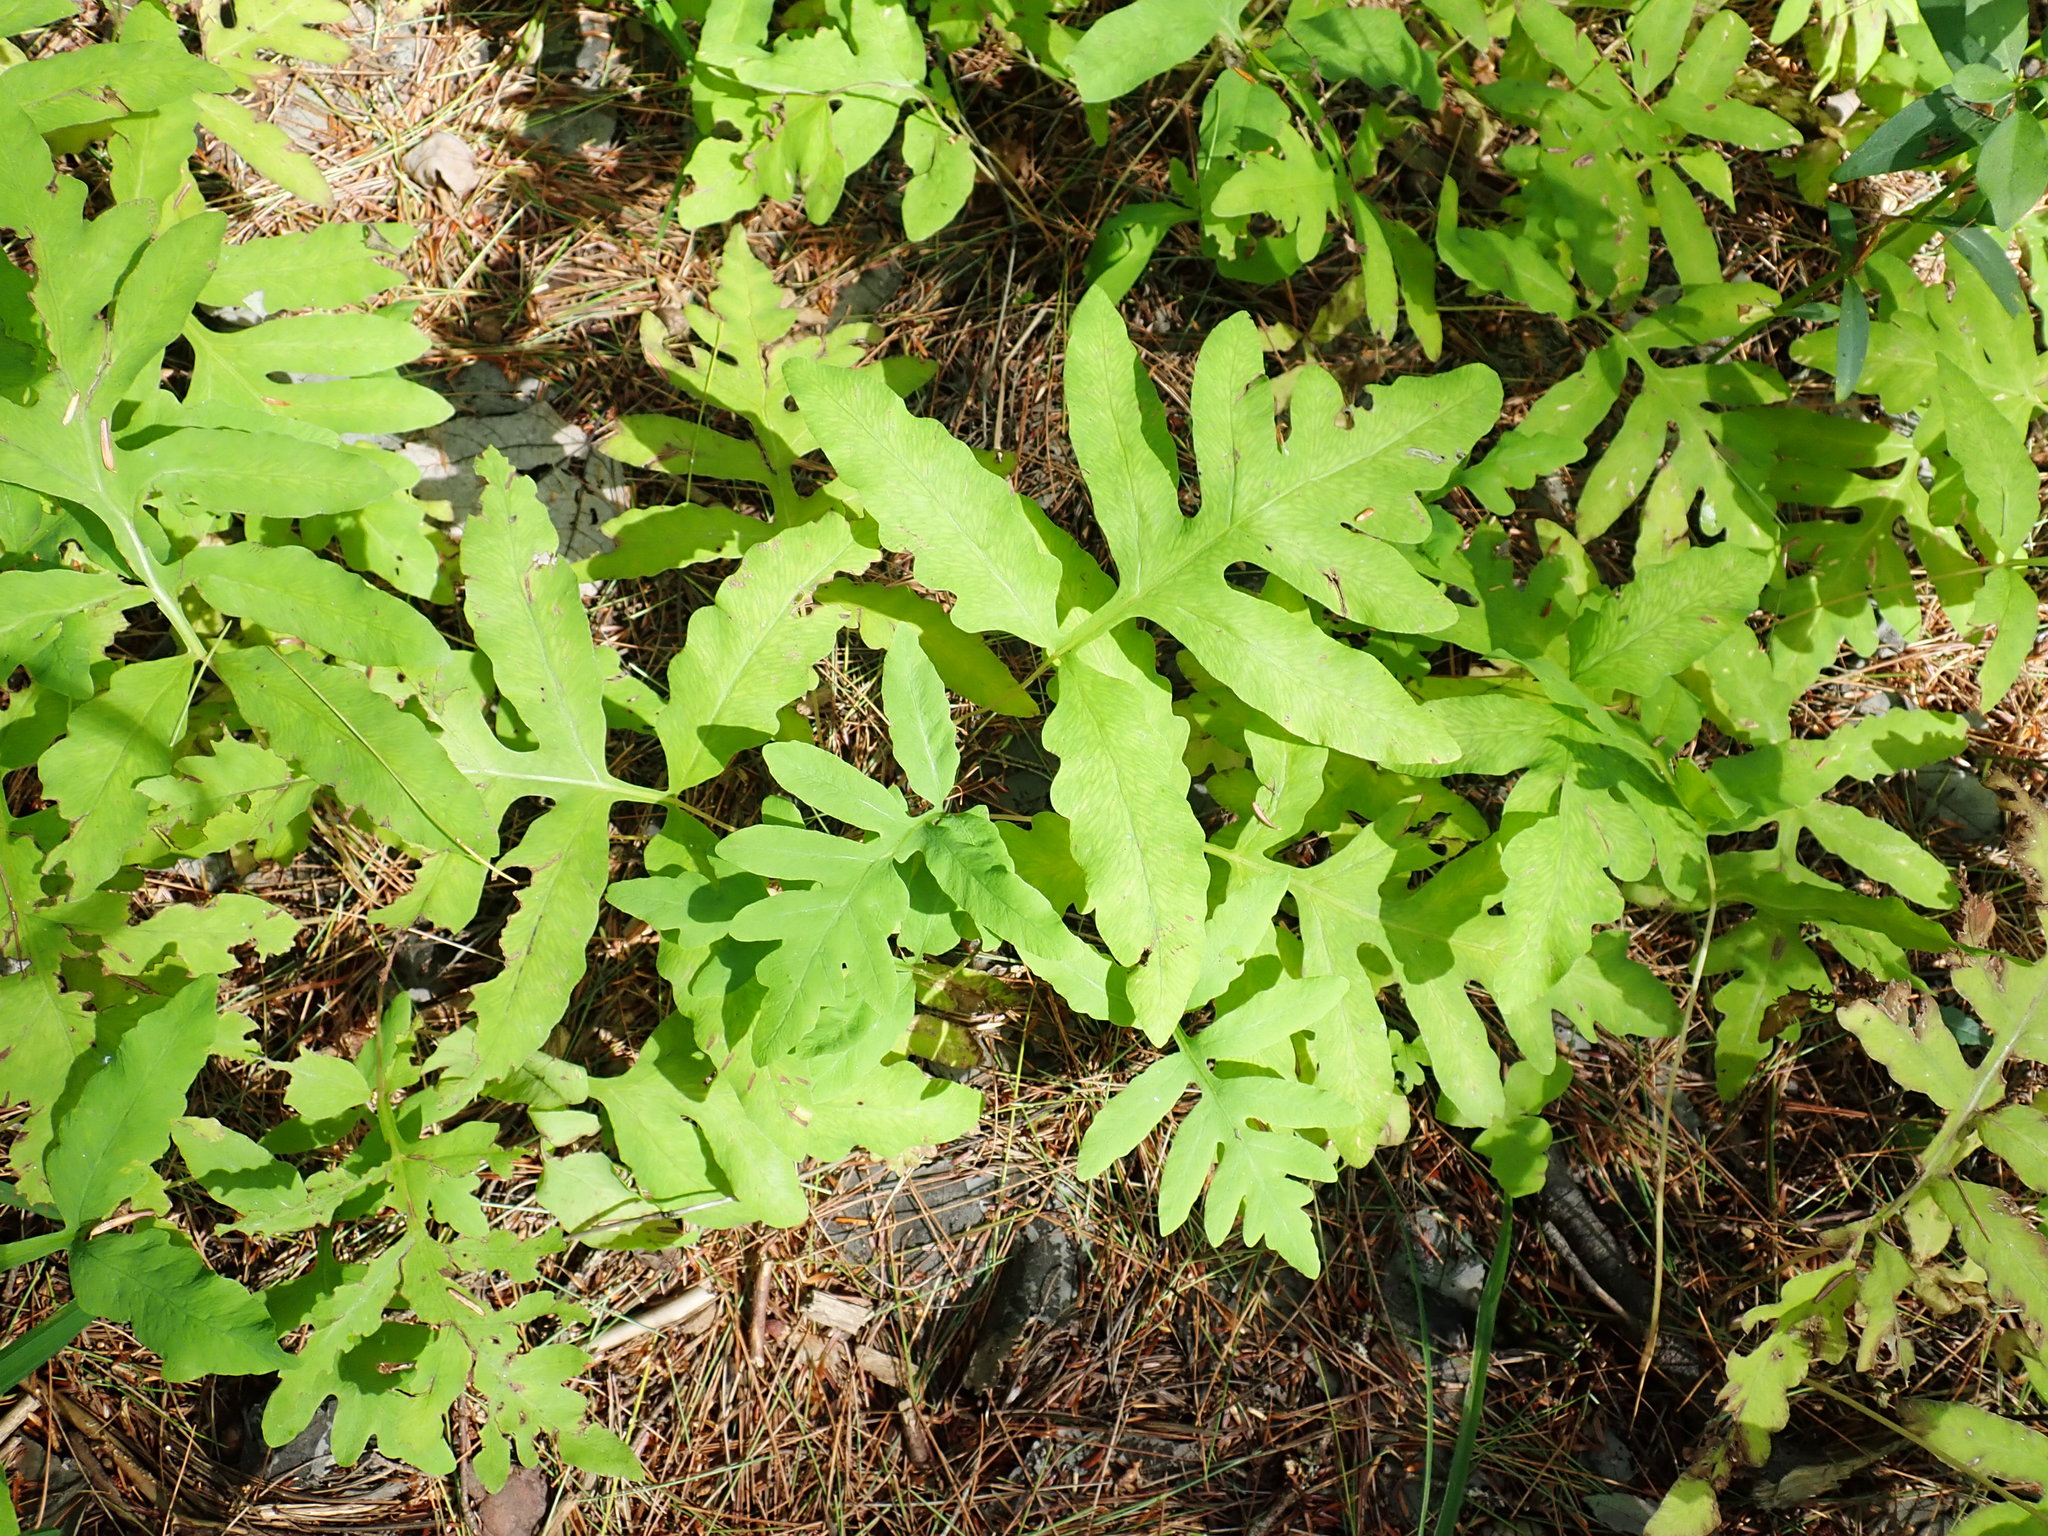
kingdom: Plantae
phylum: Tracheophyta
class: Polypodiopsida
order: Polypodiales
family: Onocleaceae
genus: Onoclea
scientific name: Onoclea sensibilis
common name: Sensitive fern
